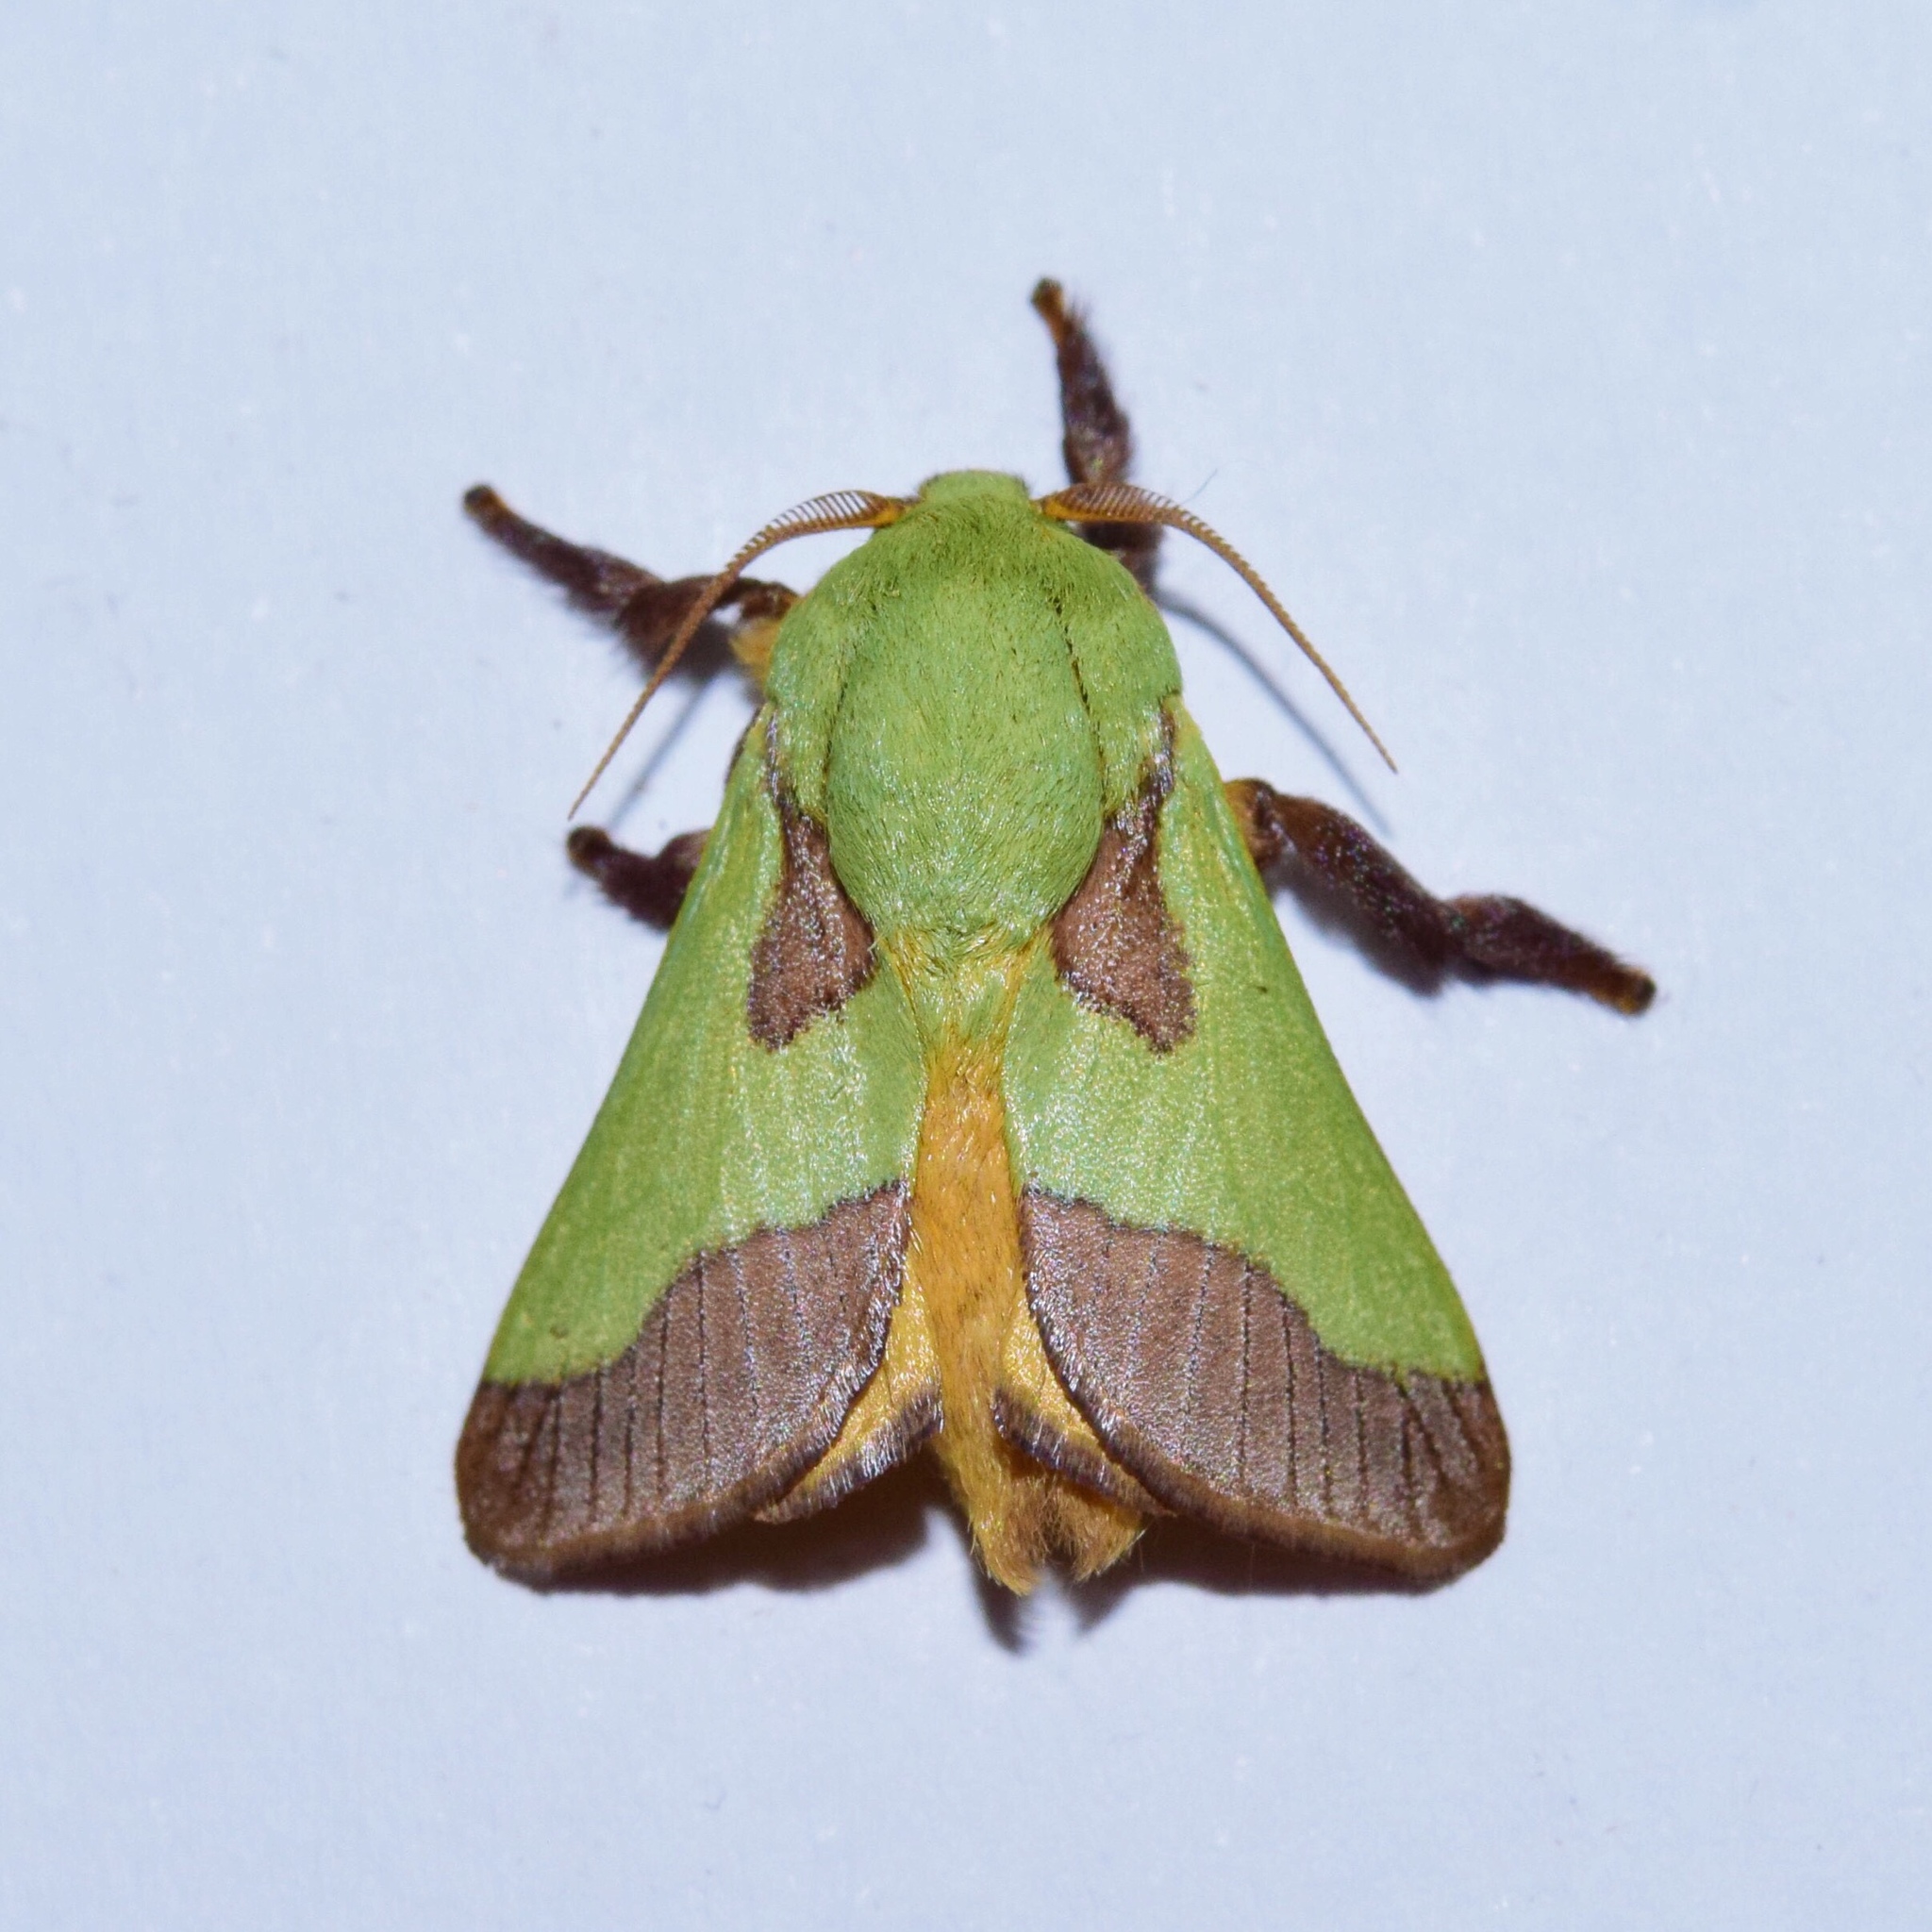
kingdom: Animalia
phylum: Arthropoda
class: Insecta
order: Lepidoptera
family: Limacodidae
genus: Parasa
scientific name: Parasa latistriga
